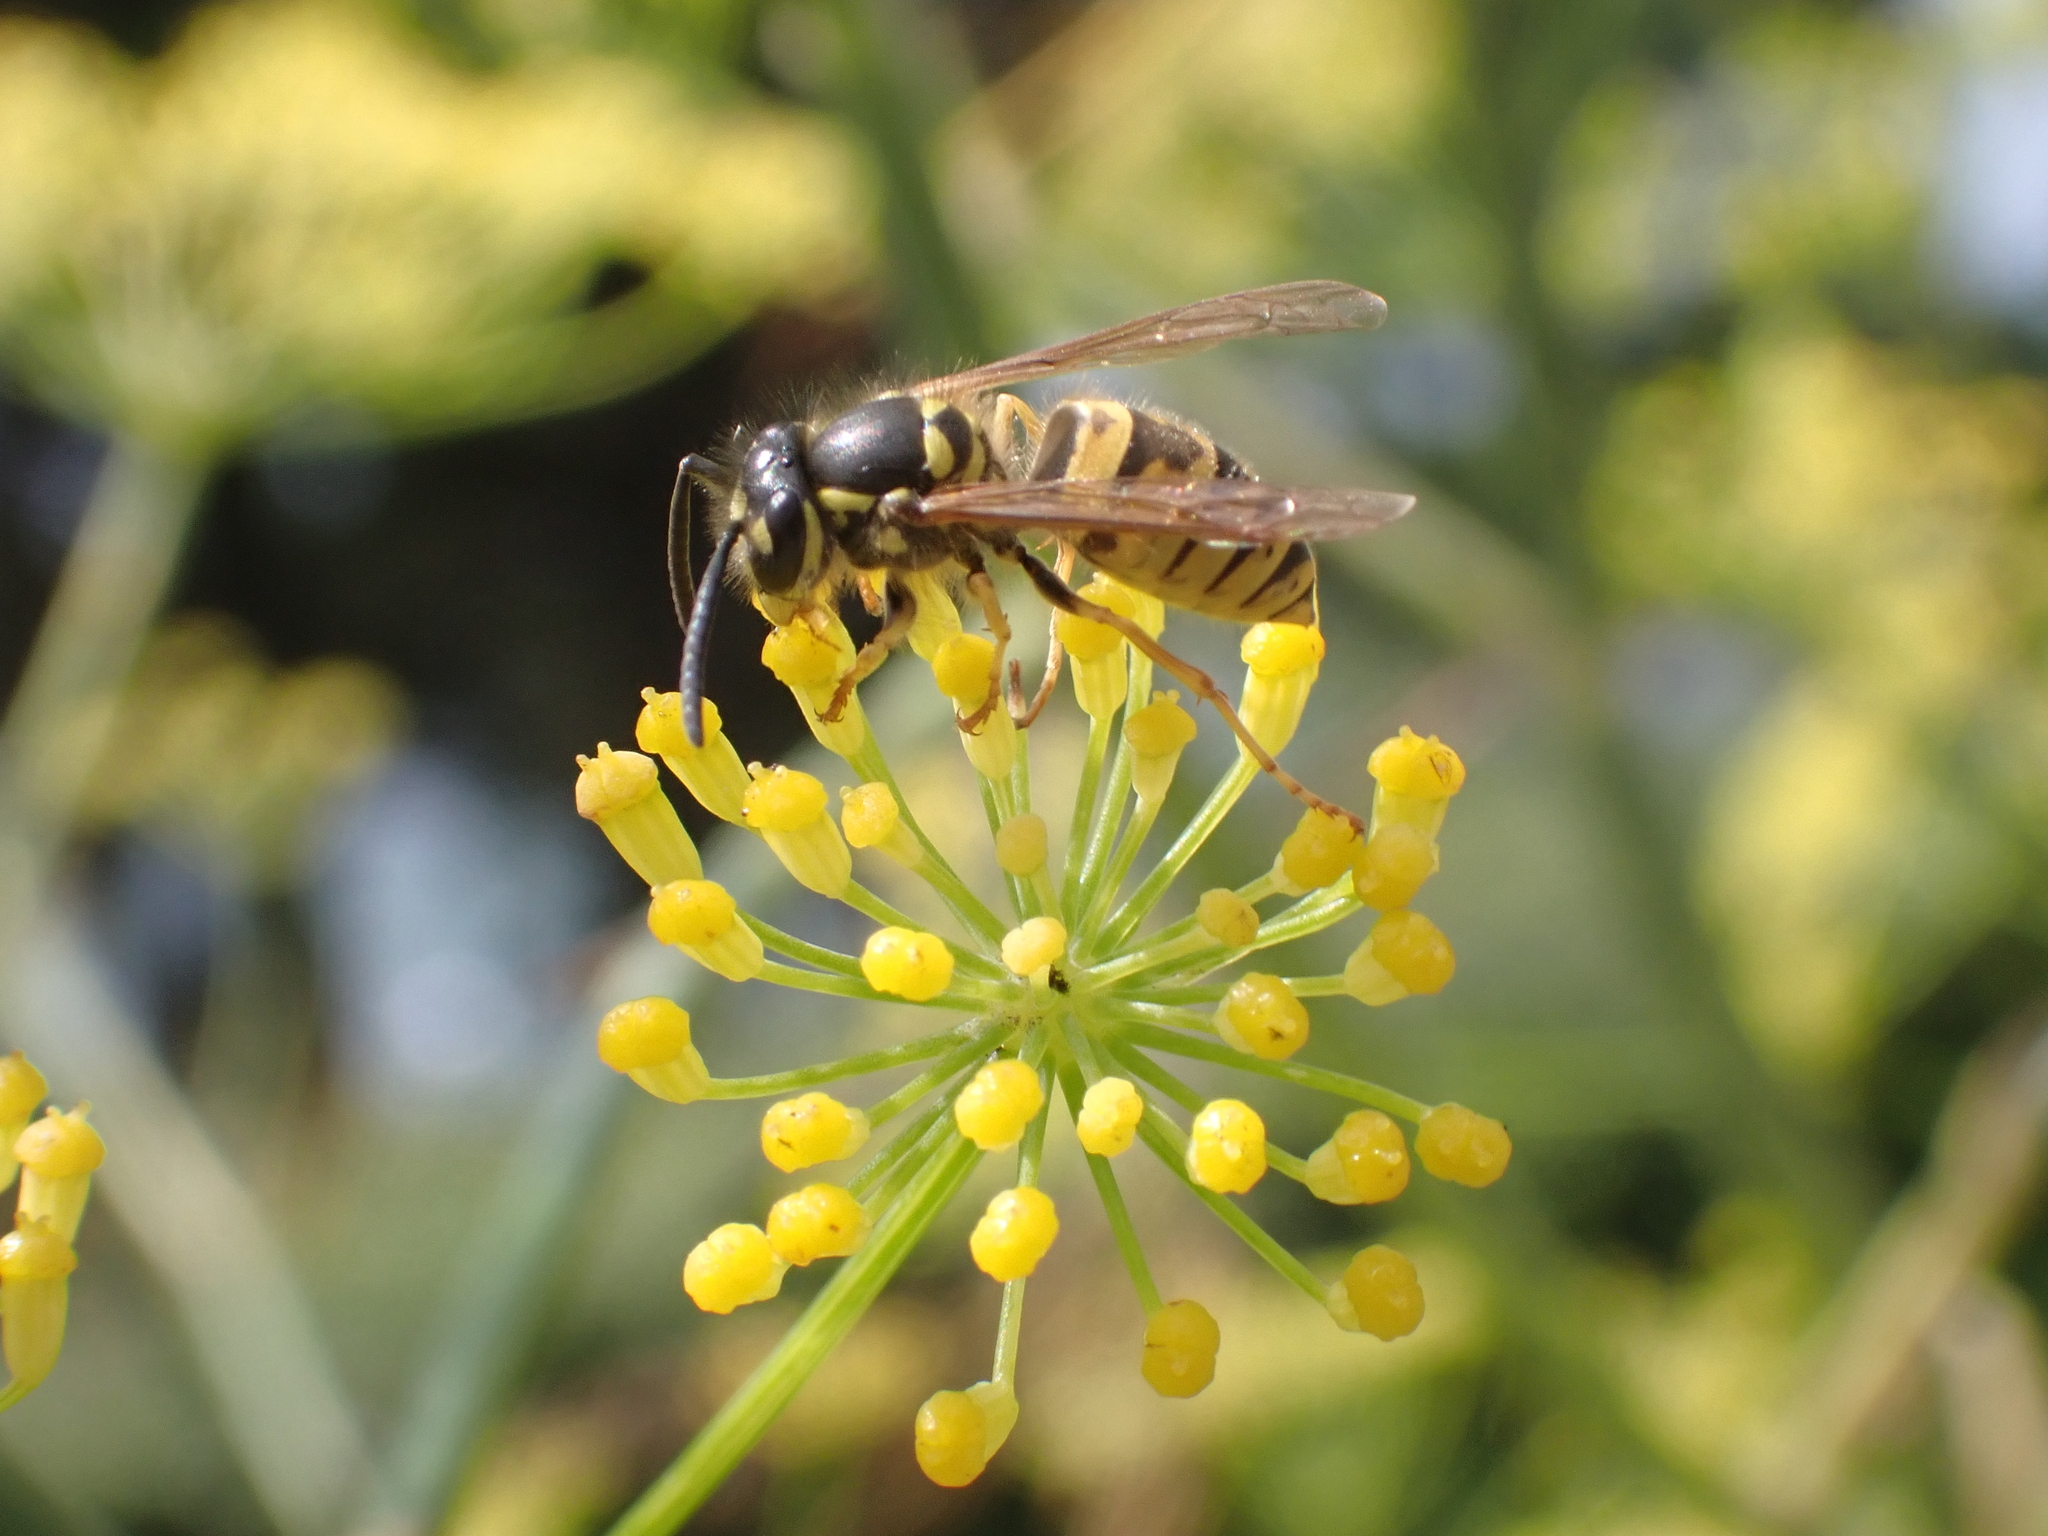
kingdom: Animalia
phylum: Arthropoda
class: Insecta
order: Hymenoptera
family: Vespidae
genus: Vespula
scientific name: Vespula vulgaris
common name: Common wasp
